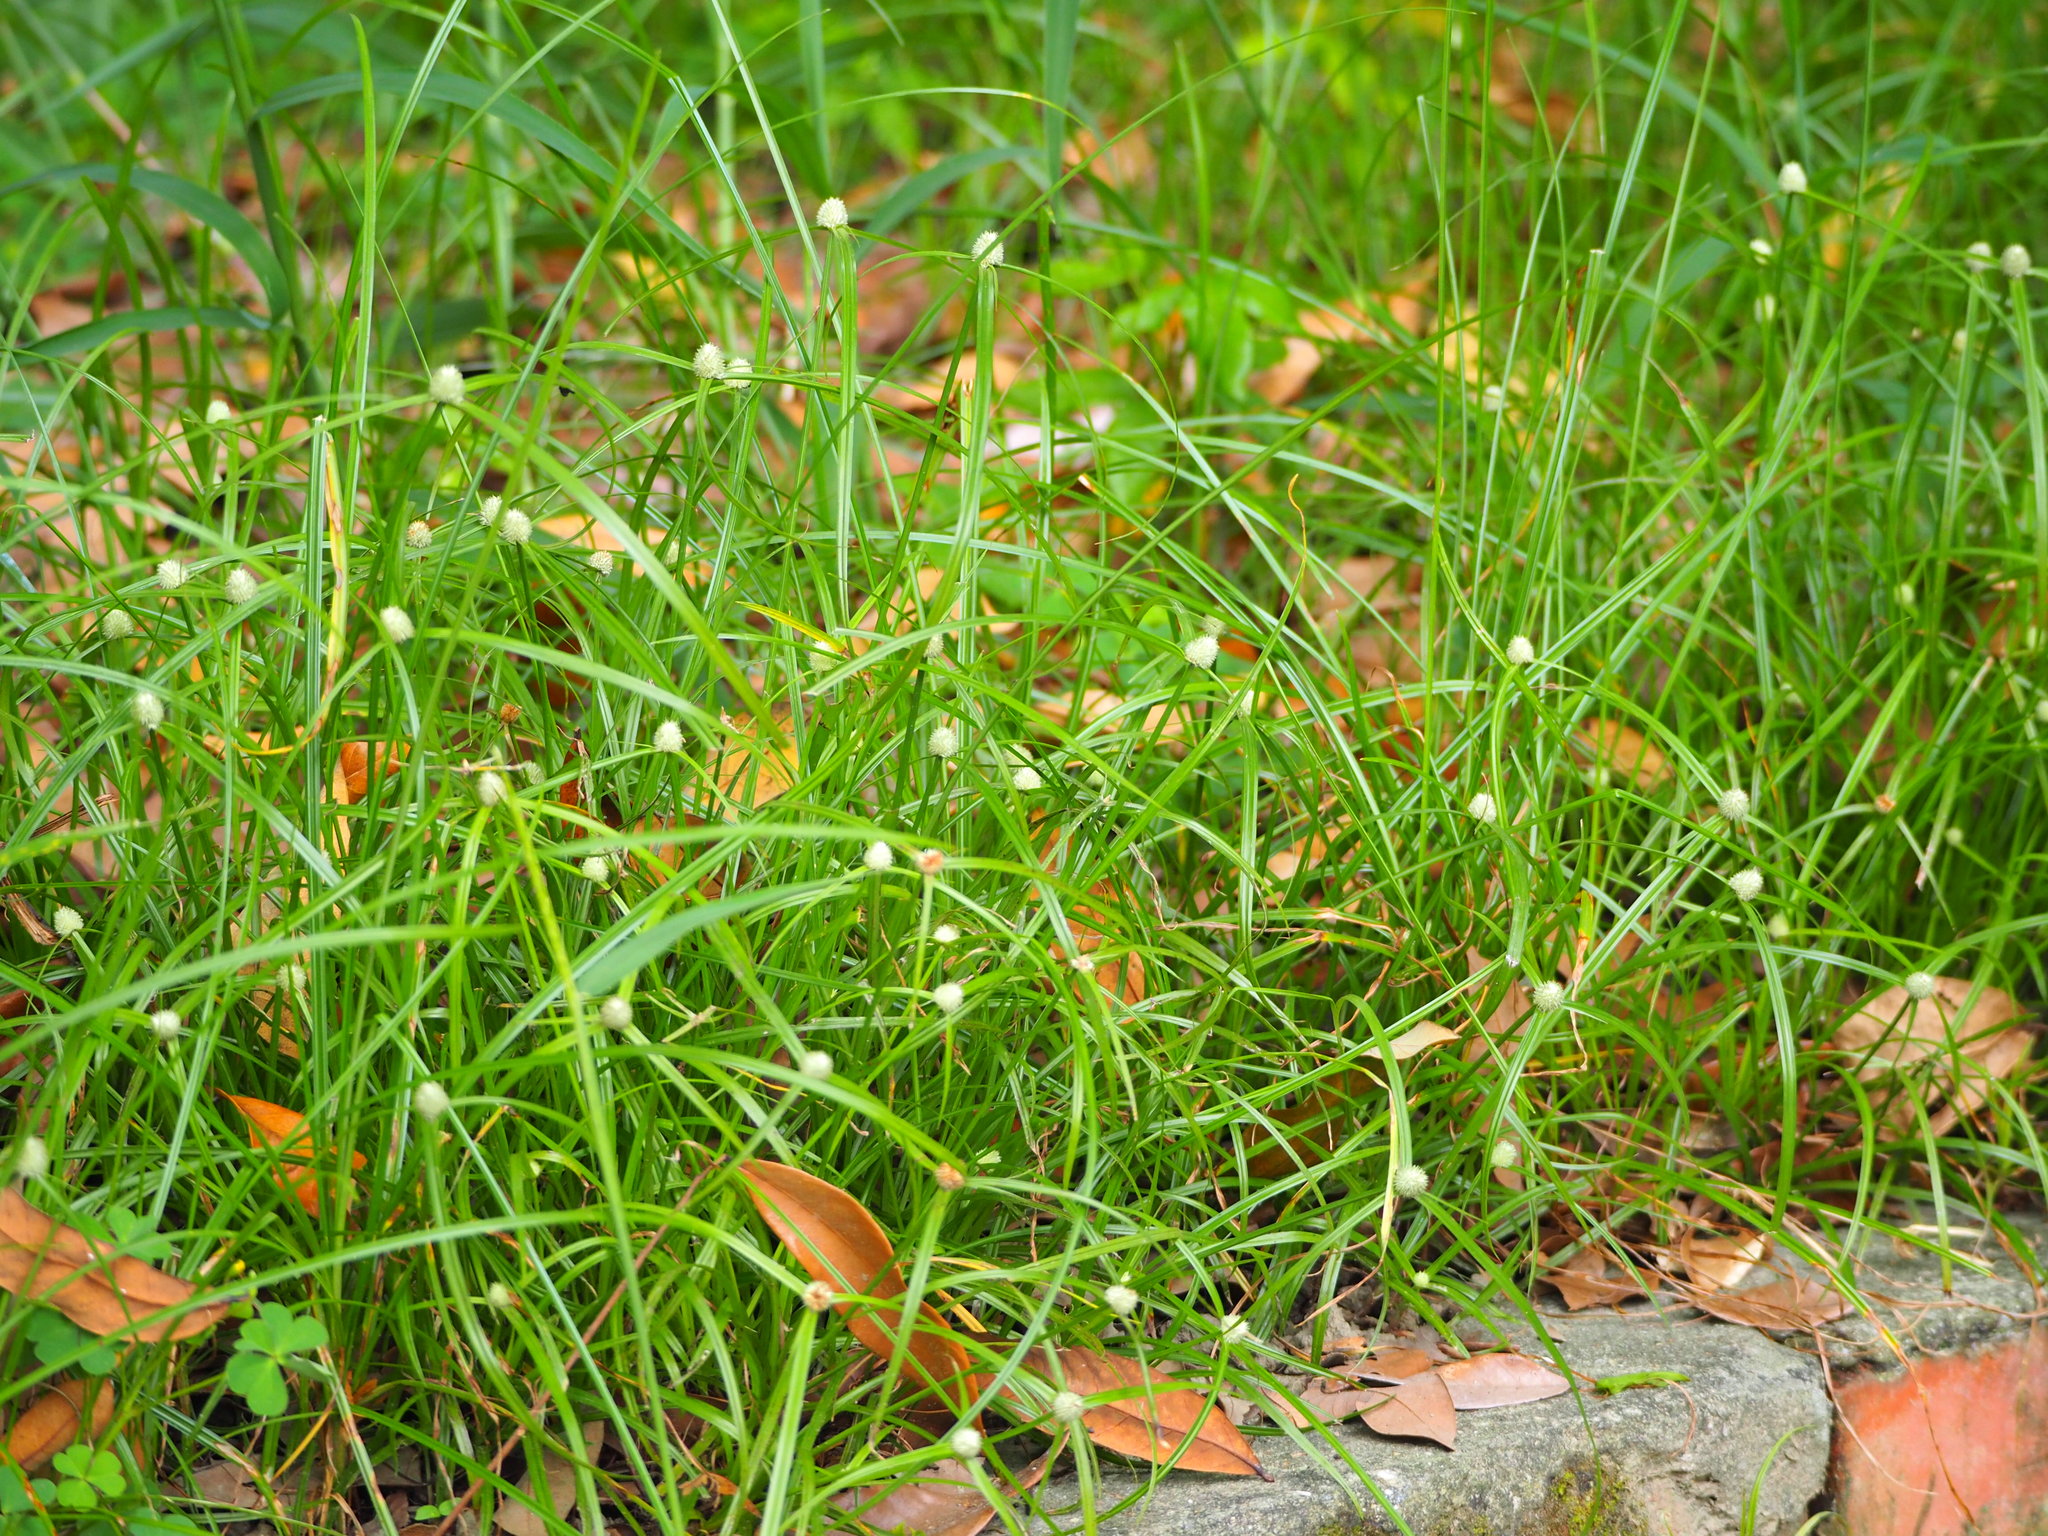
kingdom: Plantae
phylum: Tracheophyta
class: Liliopsida
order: Poales
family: Cyperaceae
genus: Cyperus
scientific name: Cyperus mindorensis
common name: Flatsedge
